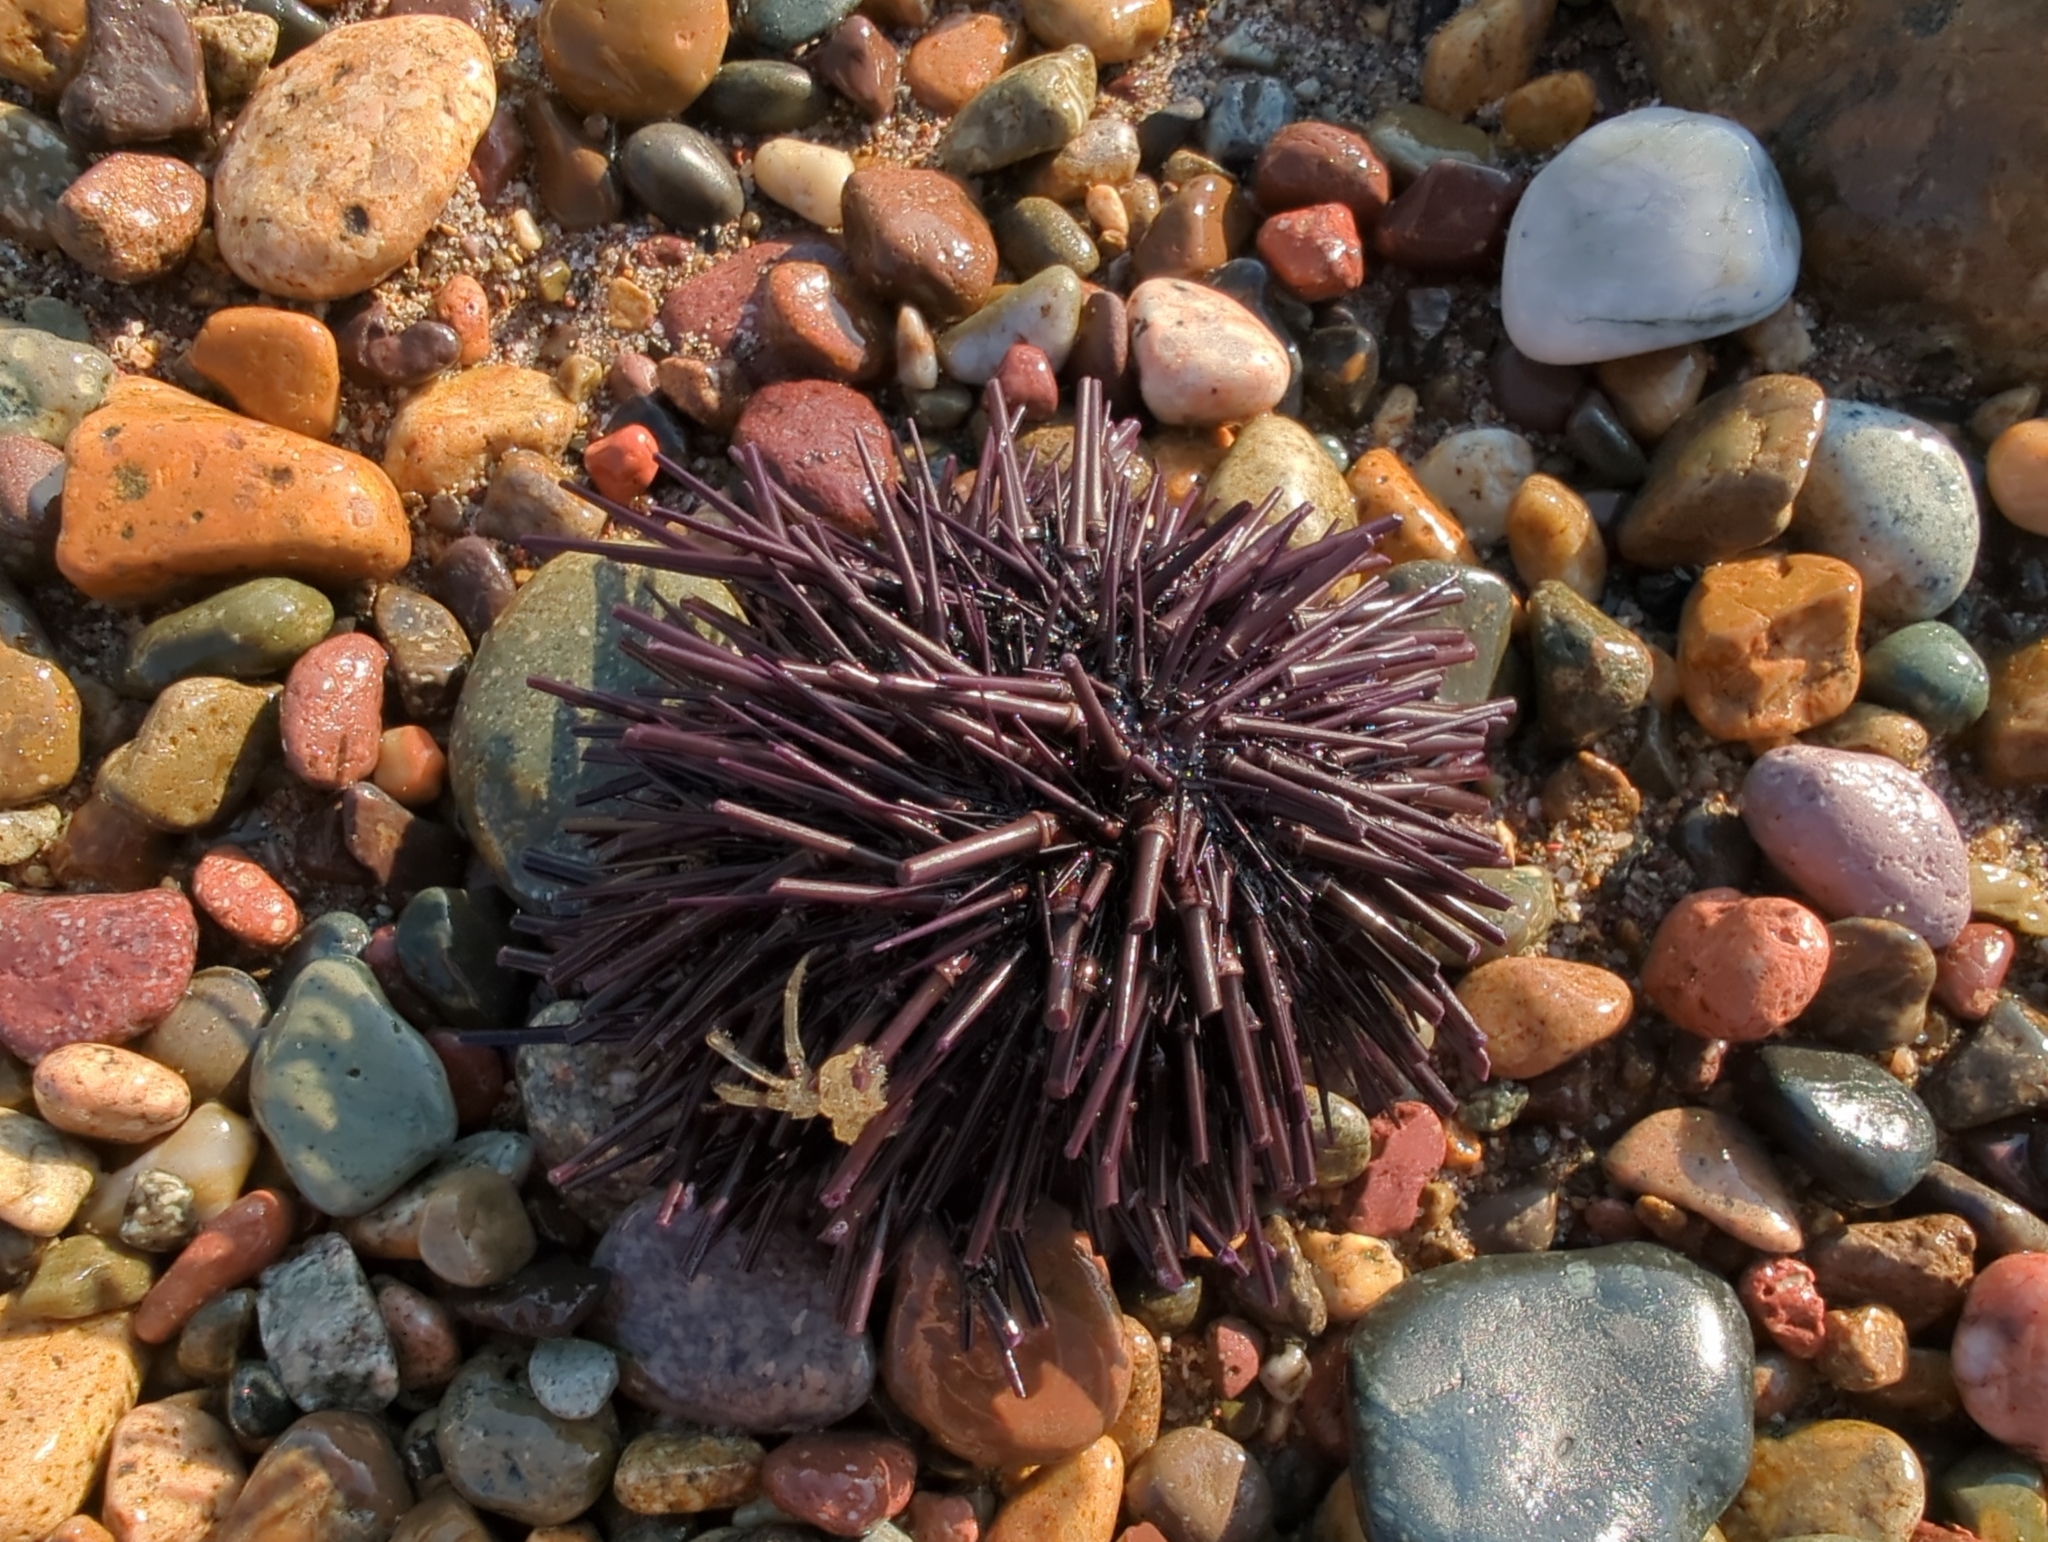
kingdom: Animalia
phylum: Echinodermata
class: Echinoidea
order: Camarodonta
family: Echinometridae
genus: Echinometra
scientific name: Echinometra vanbrunti
